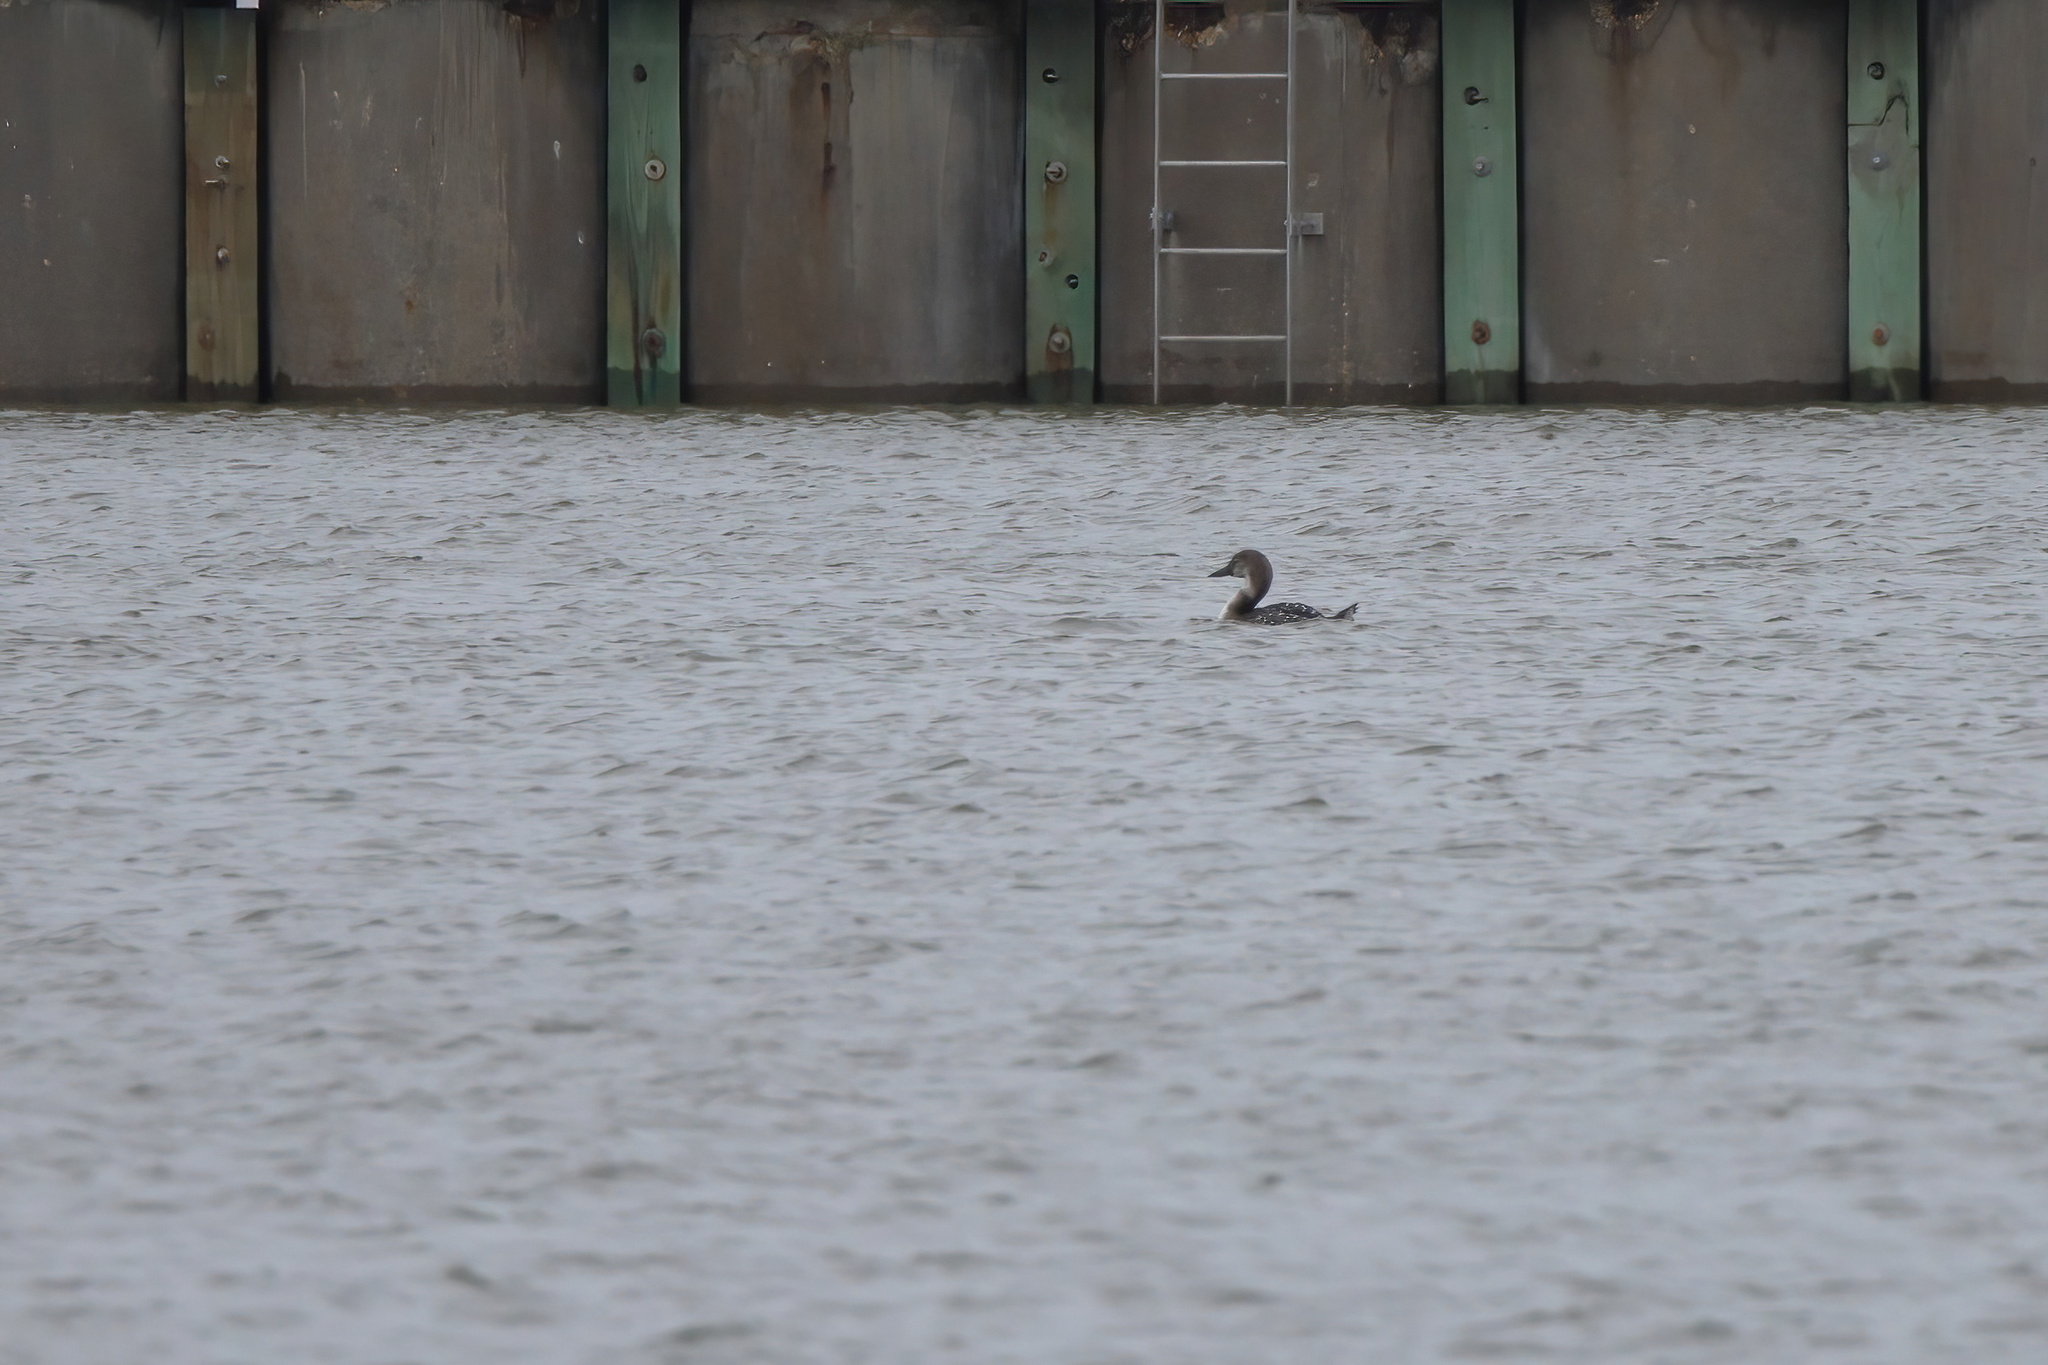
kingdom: Animalia
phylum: Chordata
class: Aves
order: Gaviiformes
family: Gaviidae
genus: Gavia
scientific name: Gavia immer
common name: Common loon
